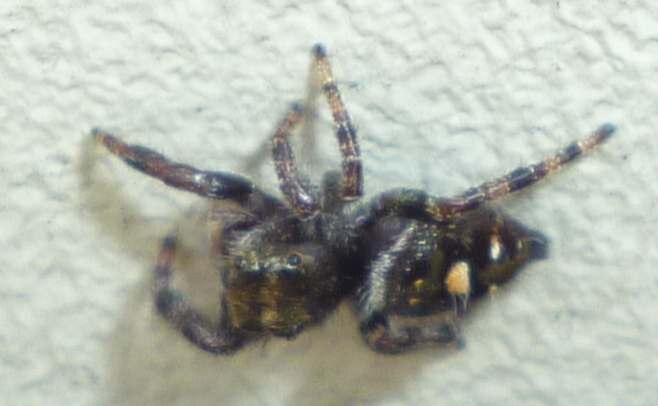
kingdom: Animalia
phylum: Arthropoda
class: Arachnida
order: Araneae
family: Salticidae
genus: Phidippus
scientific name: Phidippus audax
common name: Bold jumper
